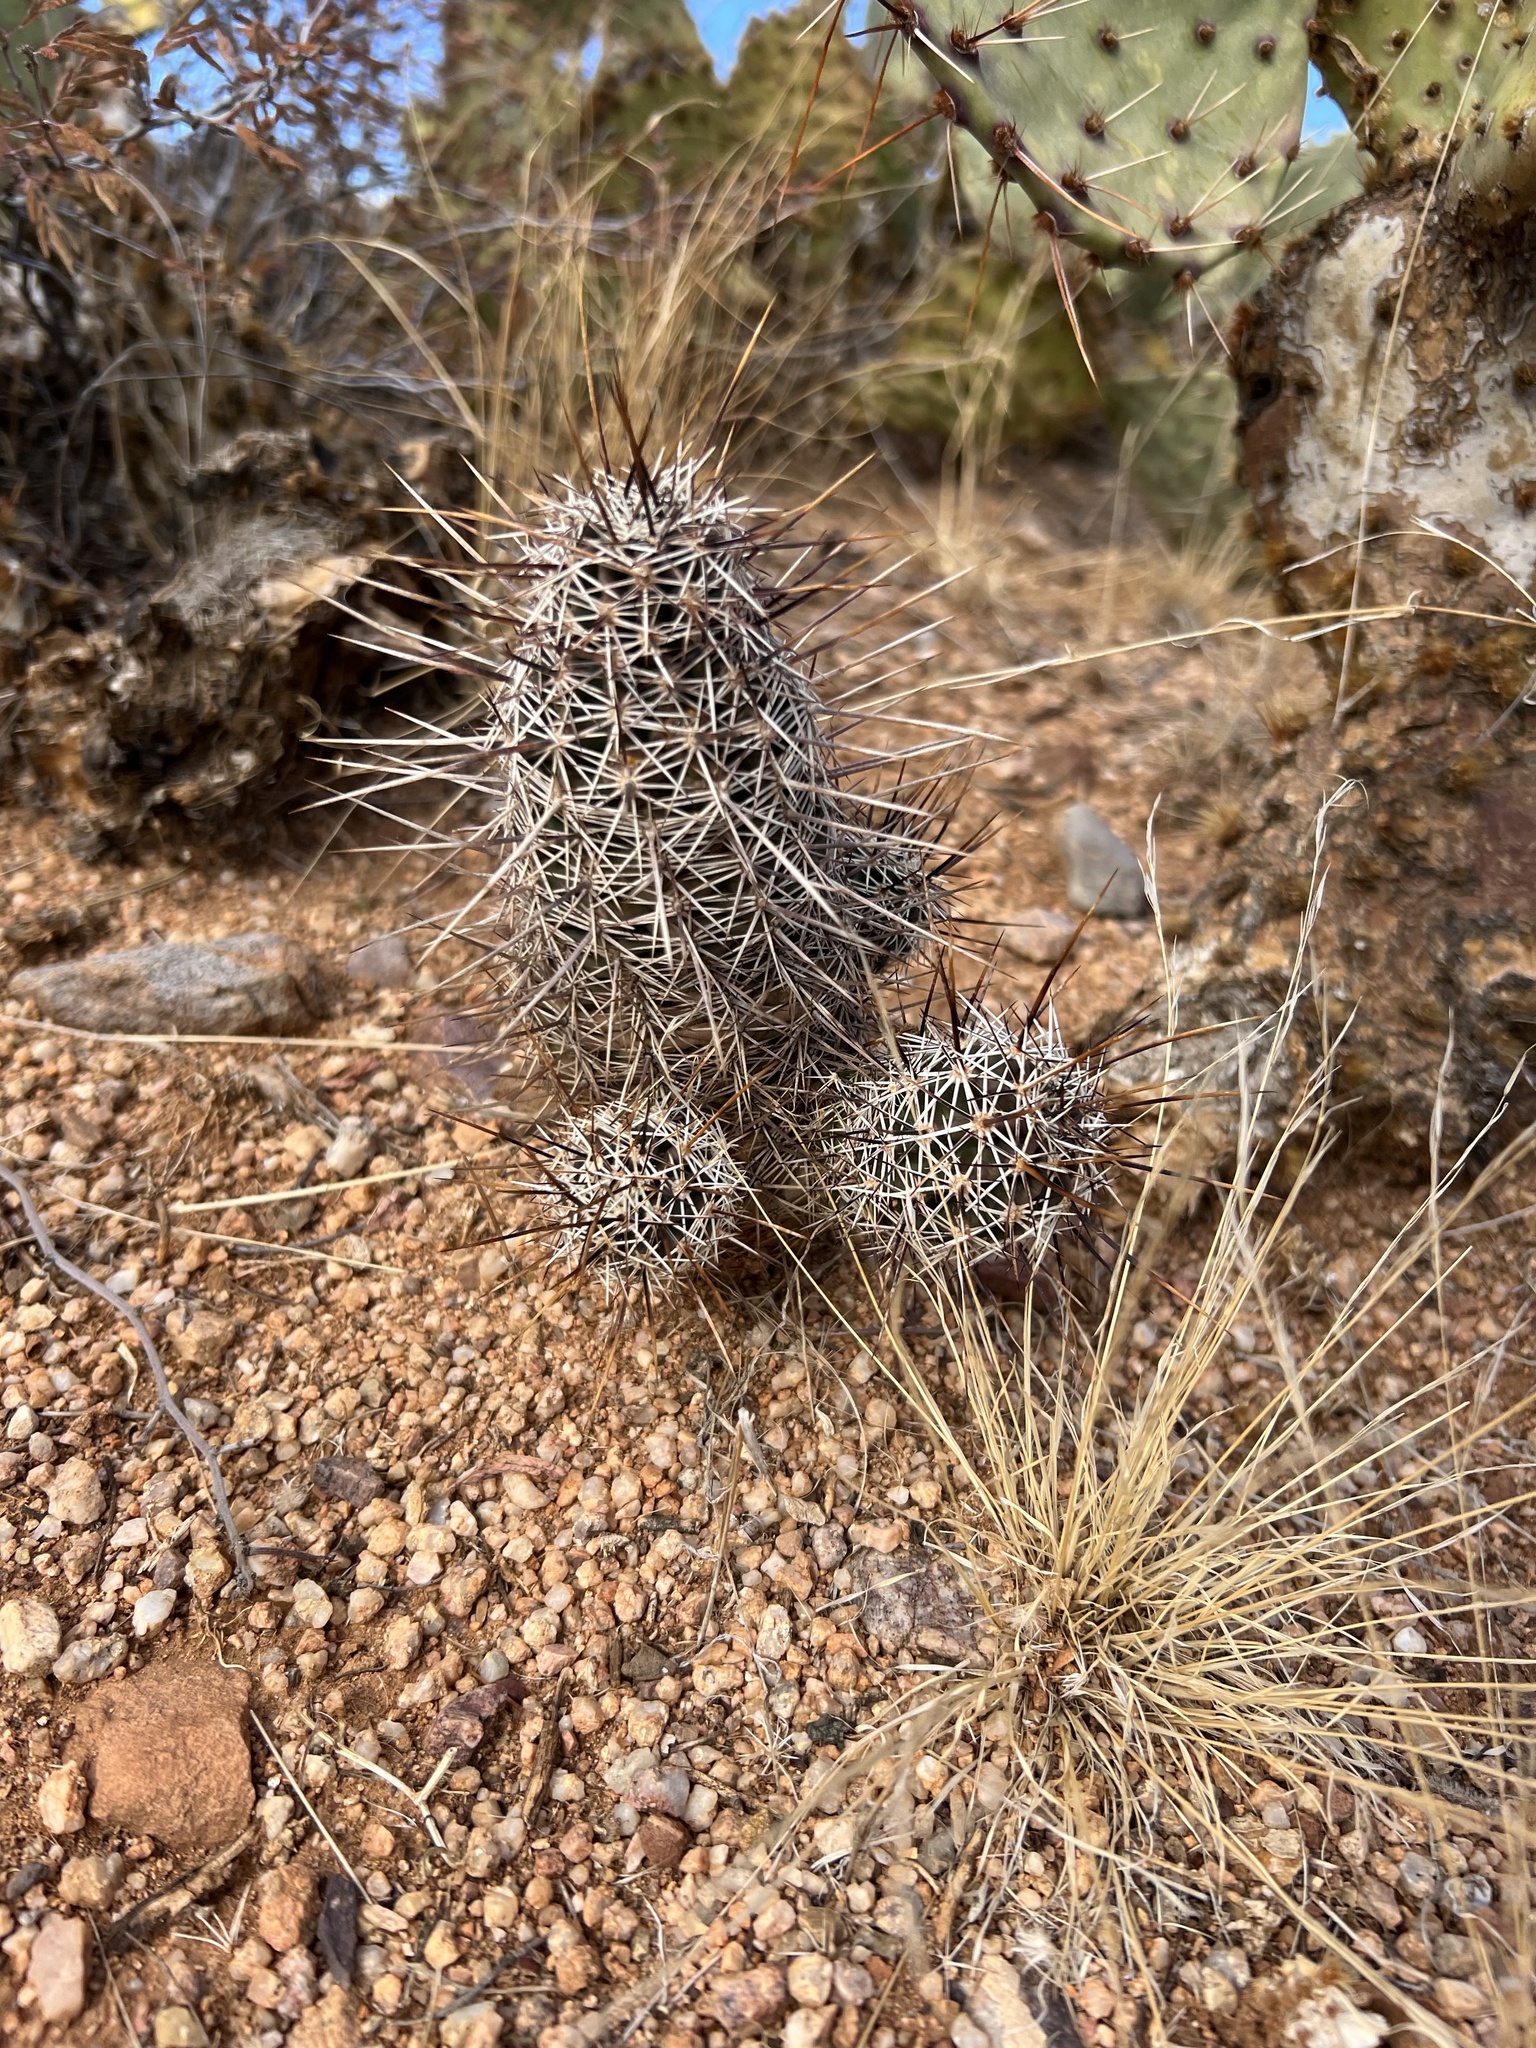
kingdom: Plantae
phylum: Tracheophyta
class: Magnoliopsida
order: Caryophyllales
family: Cactaceae
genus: Echinocereus
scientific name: Echinocereus fasciculatus
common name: Bundle hedgehog
